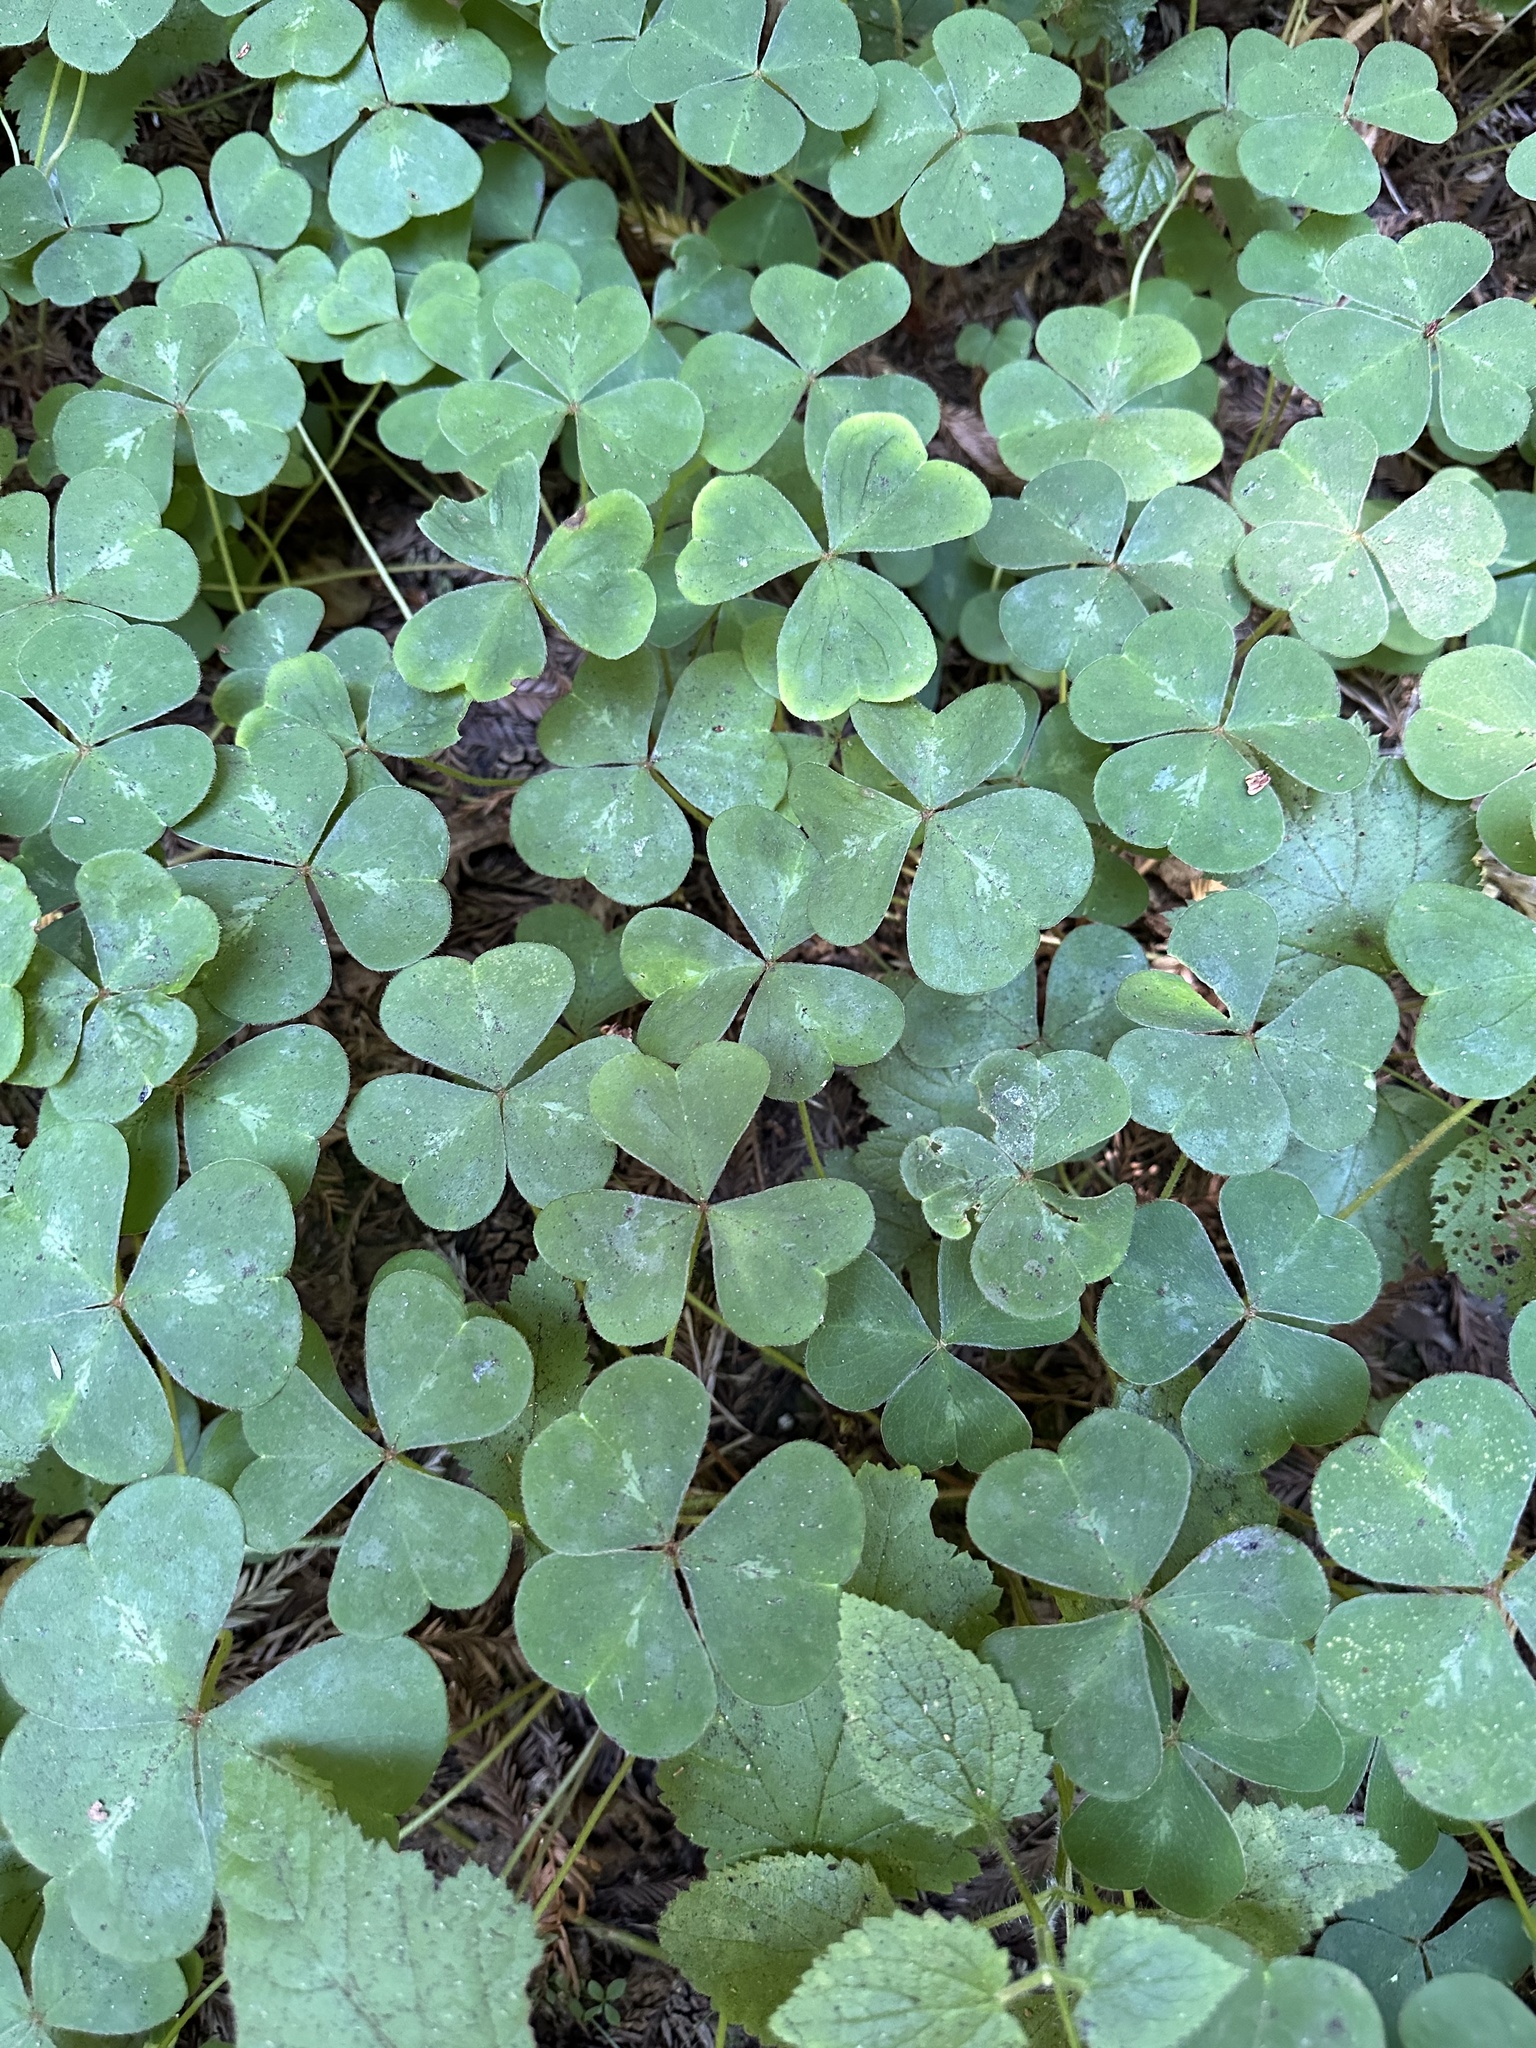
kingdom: Plantae
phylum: Tracheophyta
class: Magnoliopsida
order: Oxalidales
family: Oxalidaceae
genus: Oxalis
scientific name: Oxalis oregana
